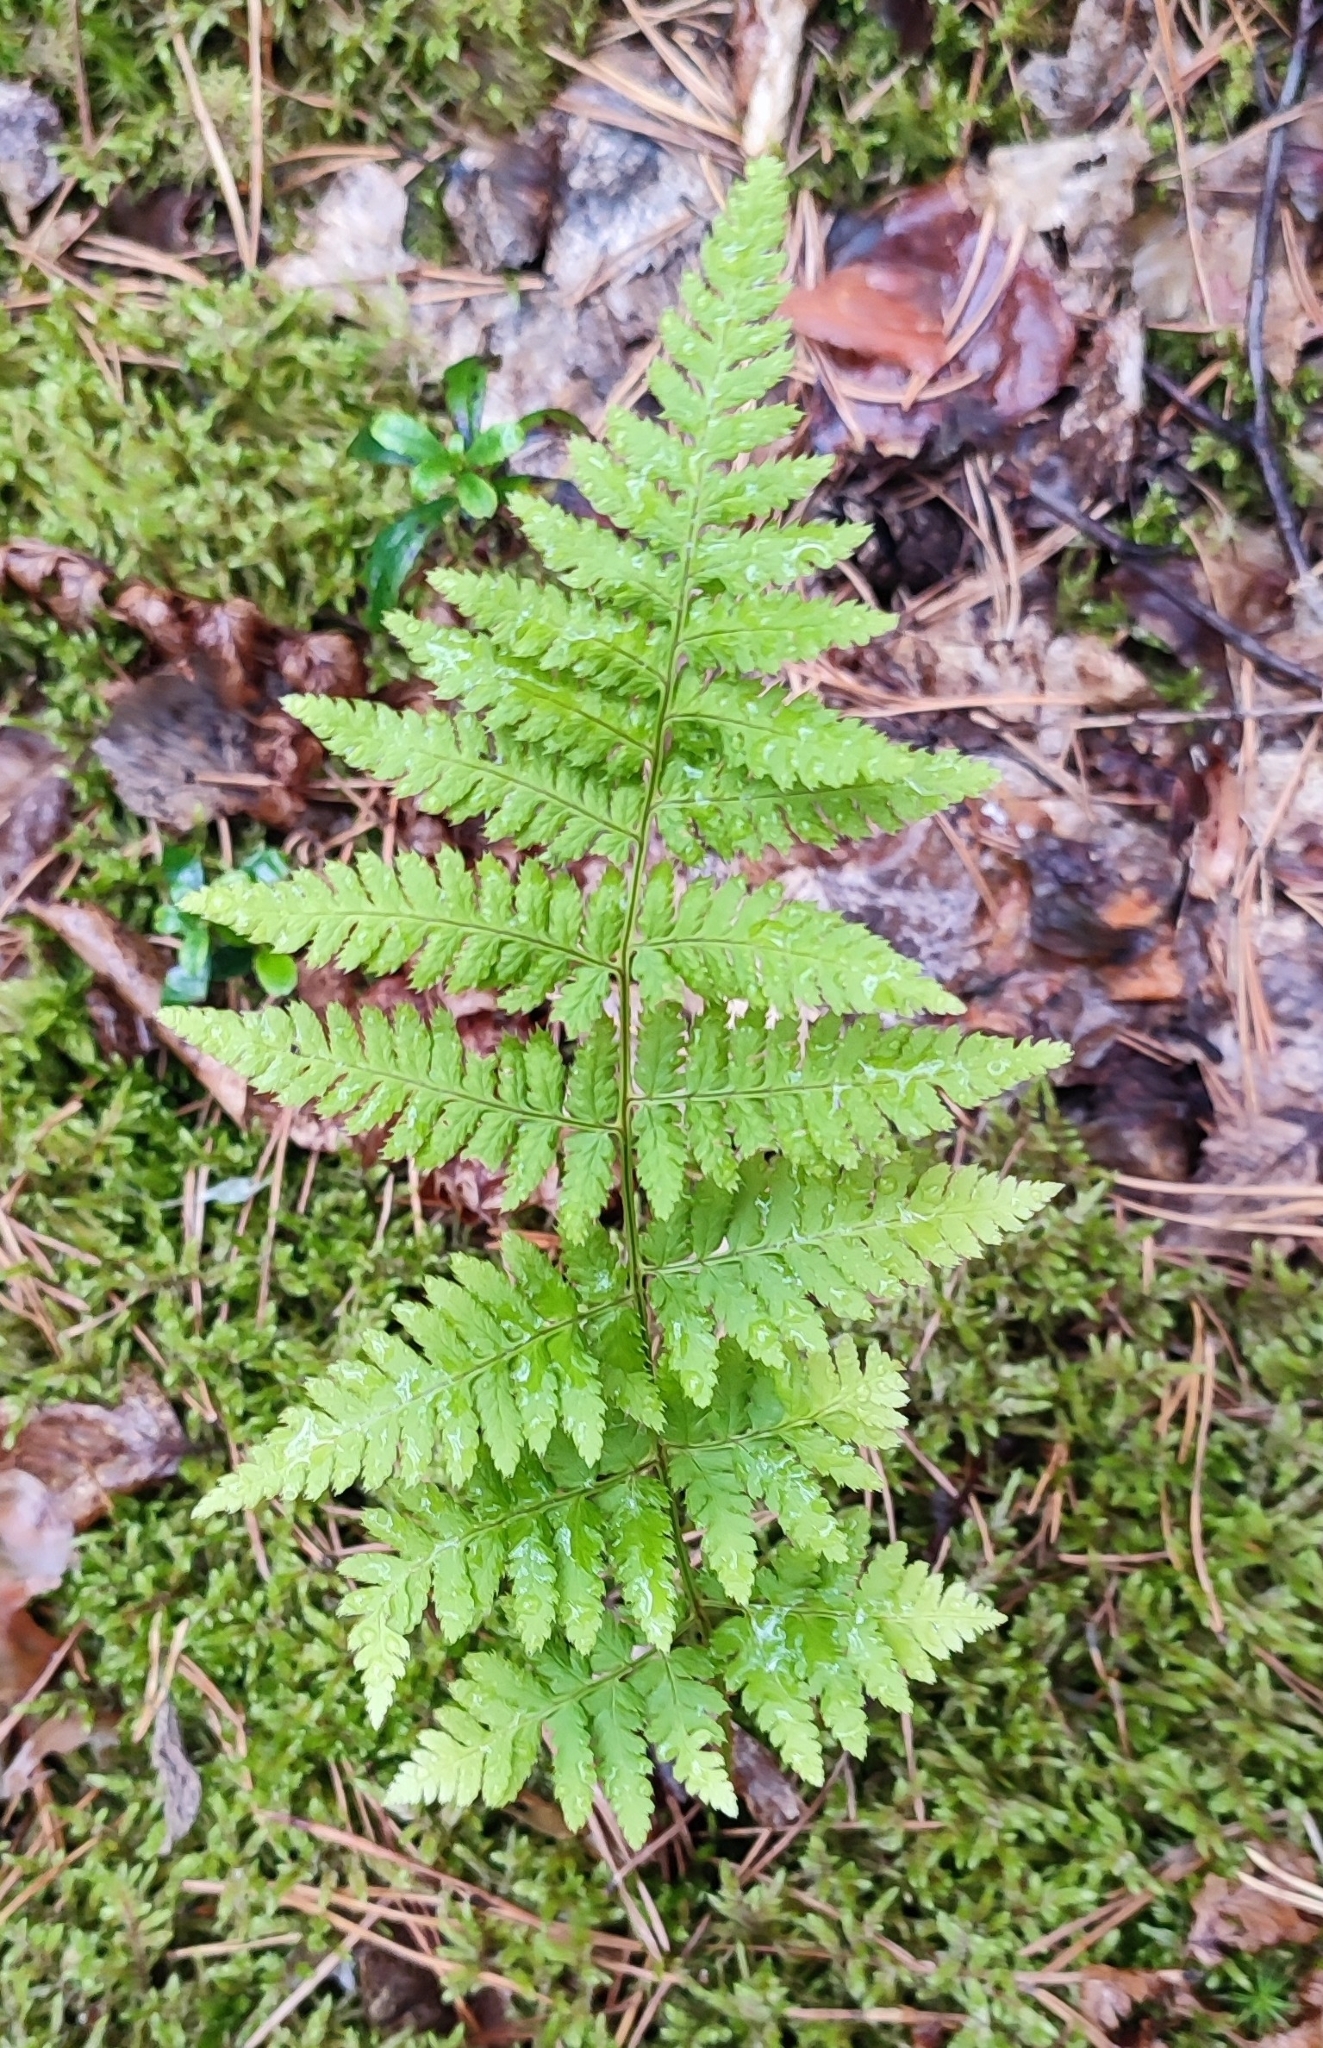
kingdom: Plantae
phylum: Tracheophyta
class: Polypodiopsida
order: Polypodiales
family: Dryopteridaceae
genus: Dryopteris
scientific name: Dryopteris carthusiana
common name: Narrow buckler-fern
